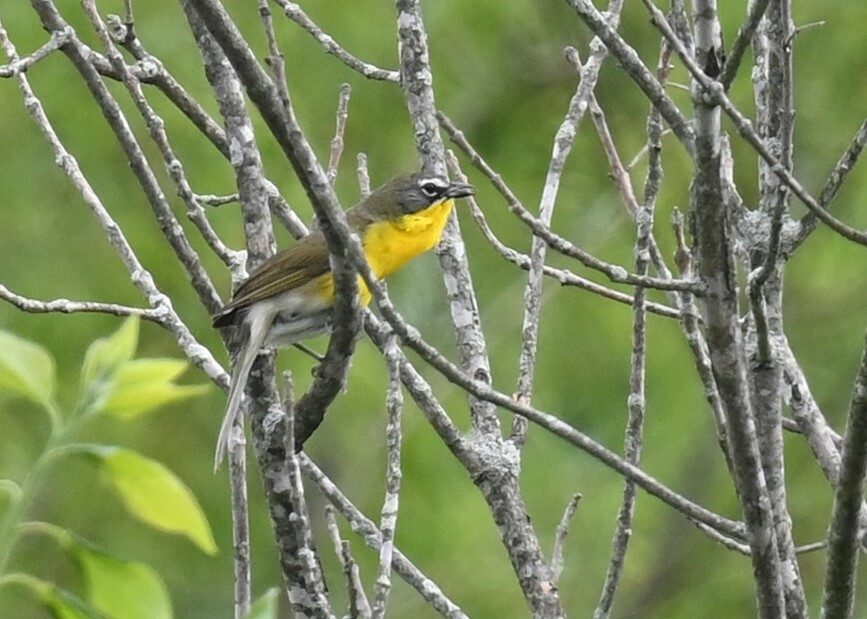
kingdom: Animalia
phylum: Chordata
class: Aves
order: Passeriformes
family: Parulidae
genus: Icteria
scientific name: Icteria virens
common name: Yellow-breasted chat
